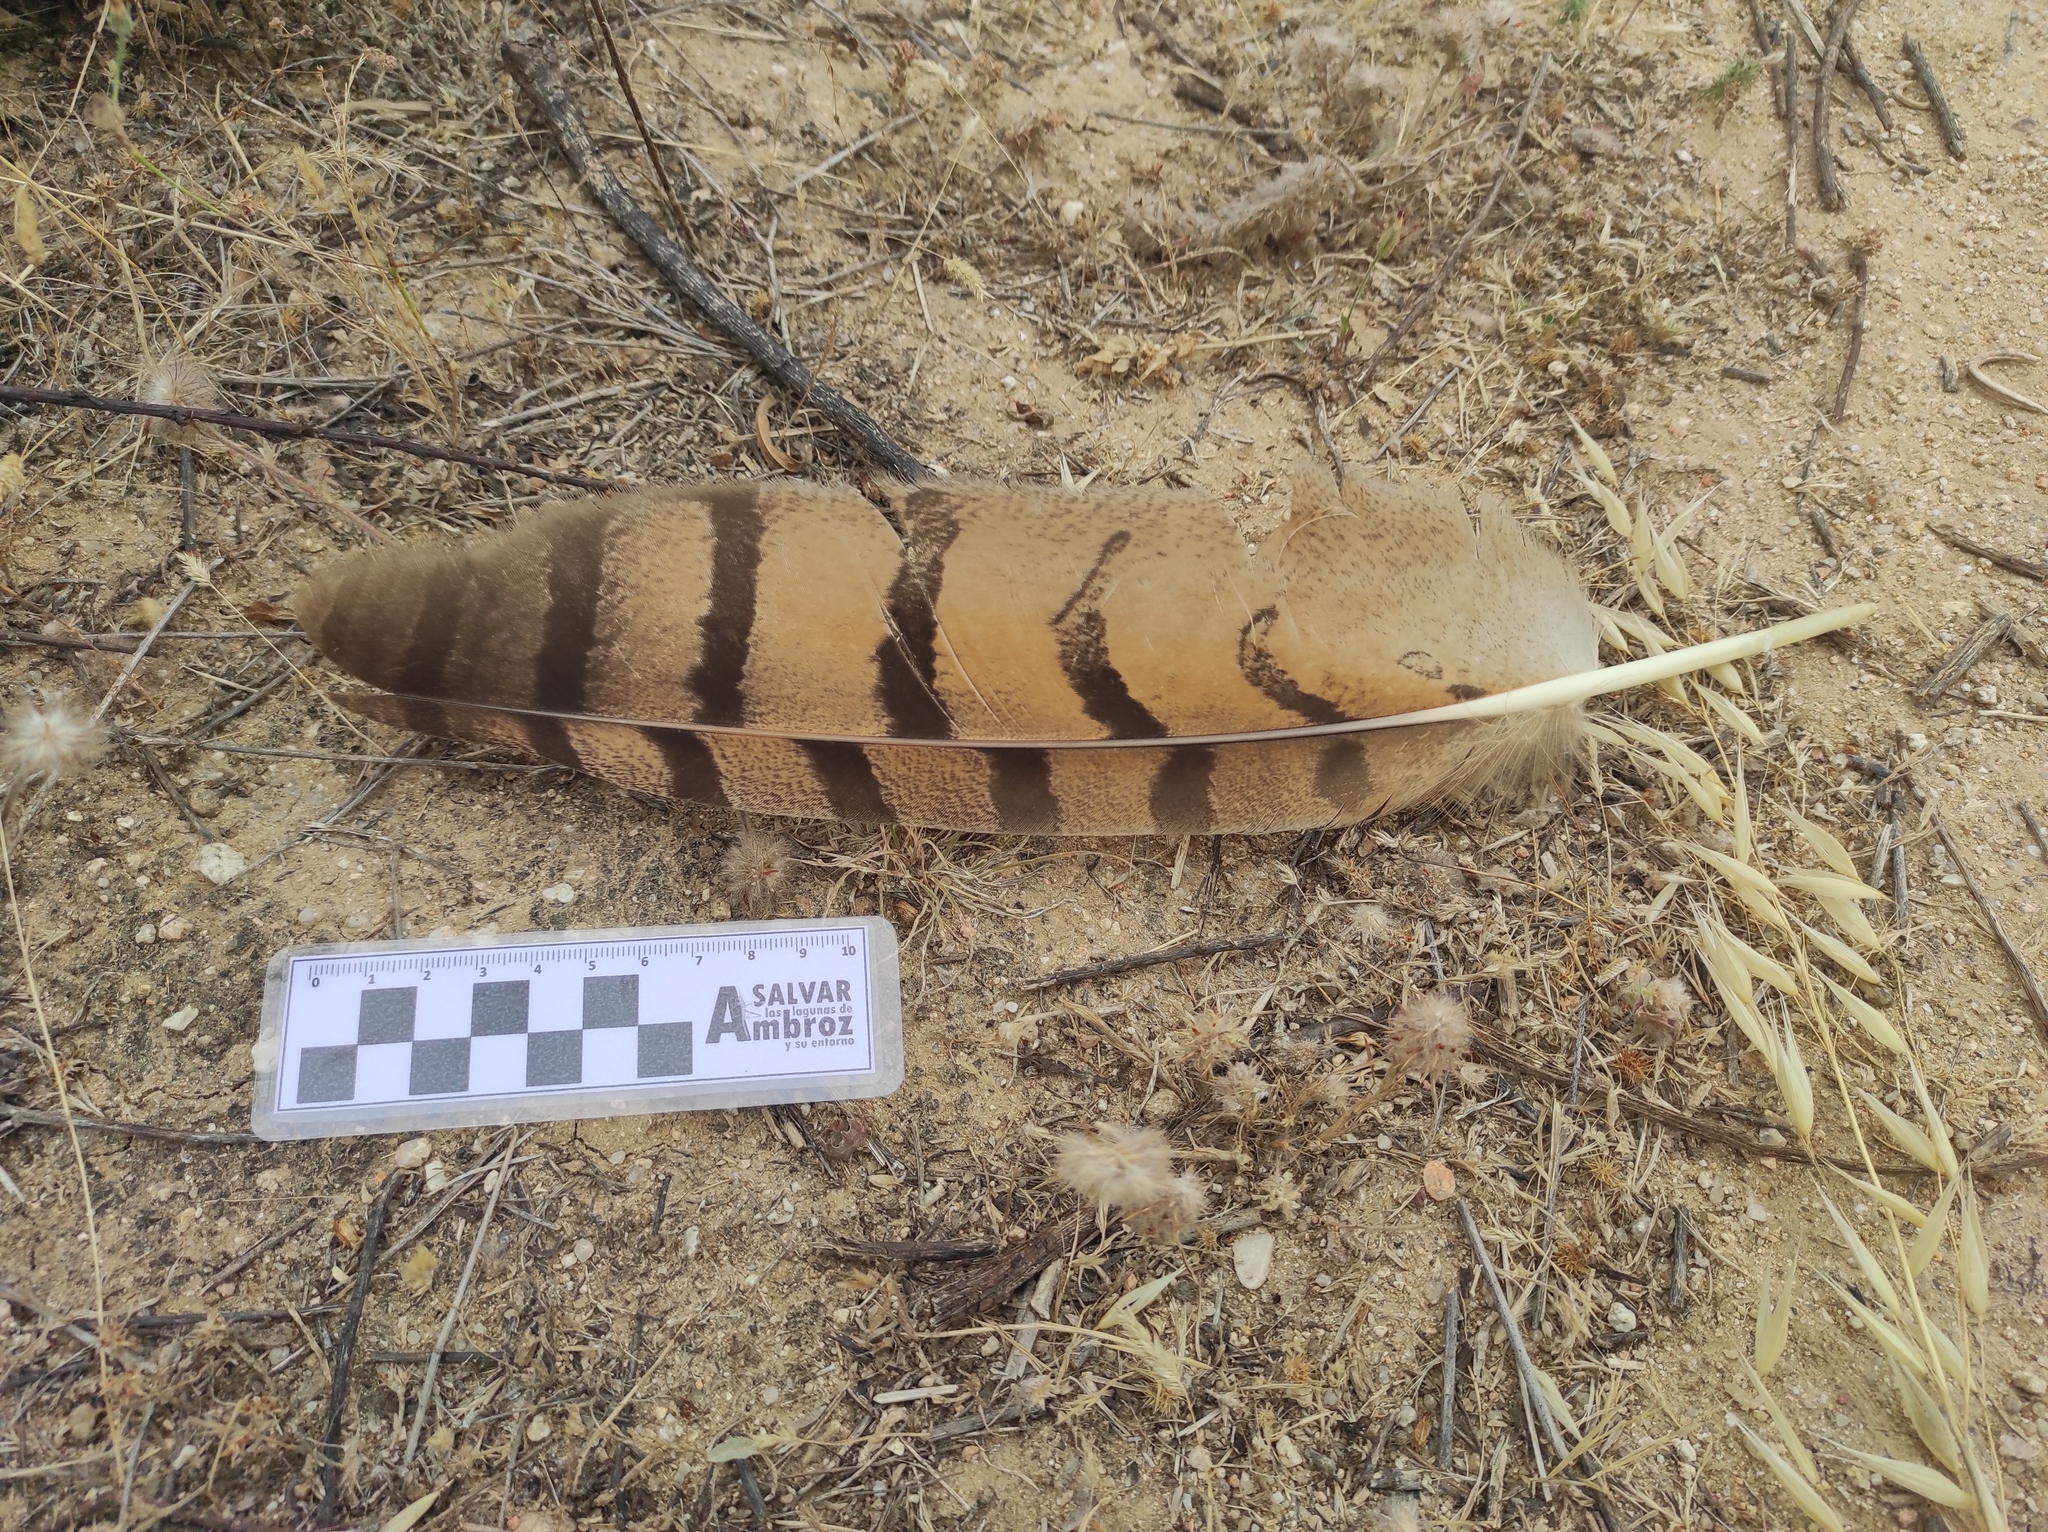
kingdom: Animalia
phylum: Chordata
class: Aves
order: Strigiformes
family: Strigidae
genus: Bubo
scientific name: Bubo bubo
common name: Eurasian eagle-owl
